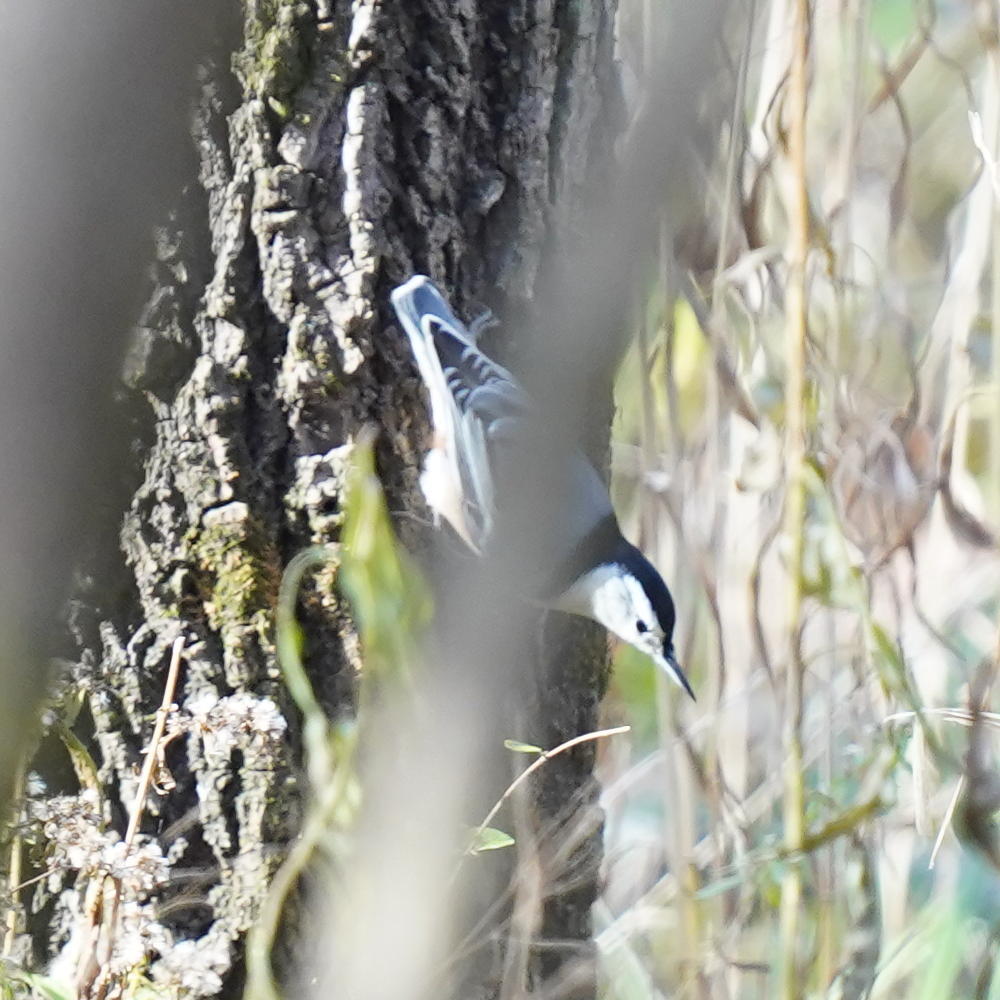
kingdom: Animalia
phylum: Chordata
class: Aves
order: Passeriformes
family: Sittidae
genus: Sitta
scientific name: Sitta carolinensis
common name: White-breasted nuthatch
